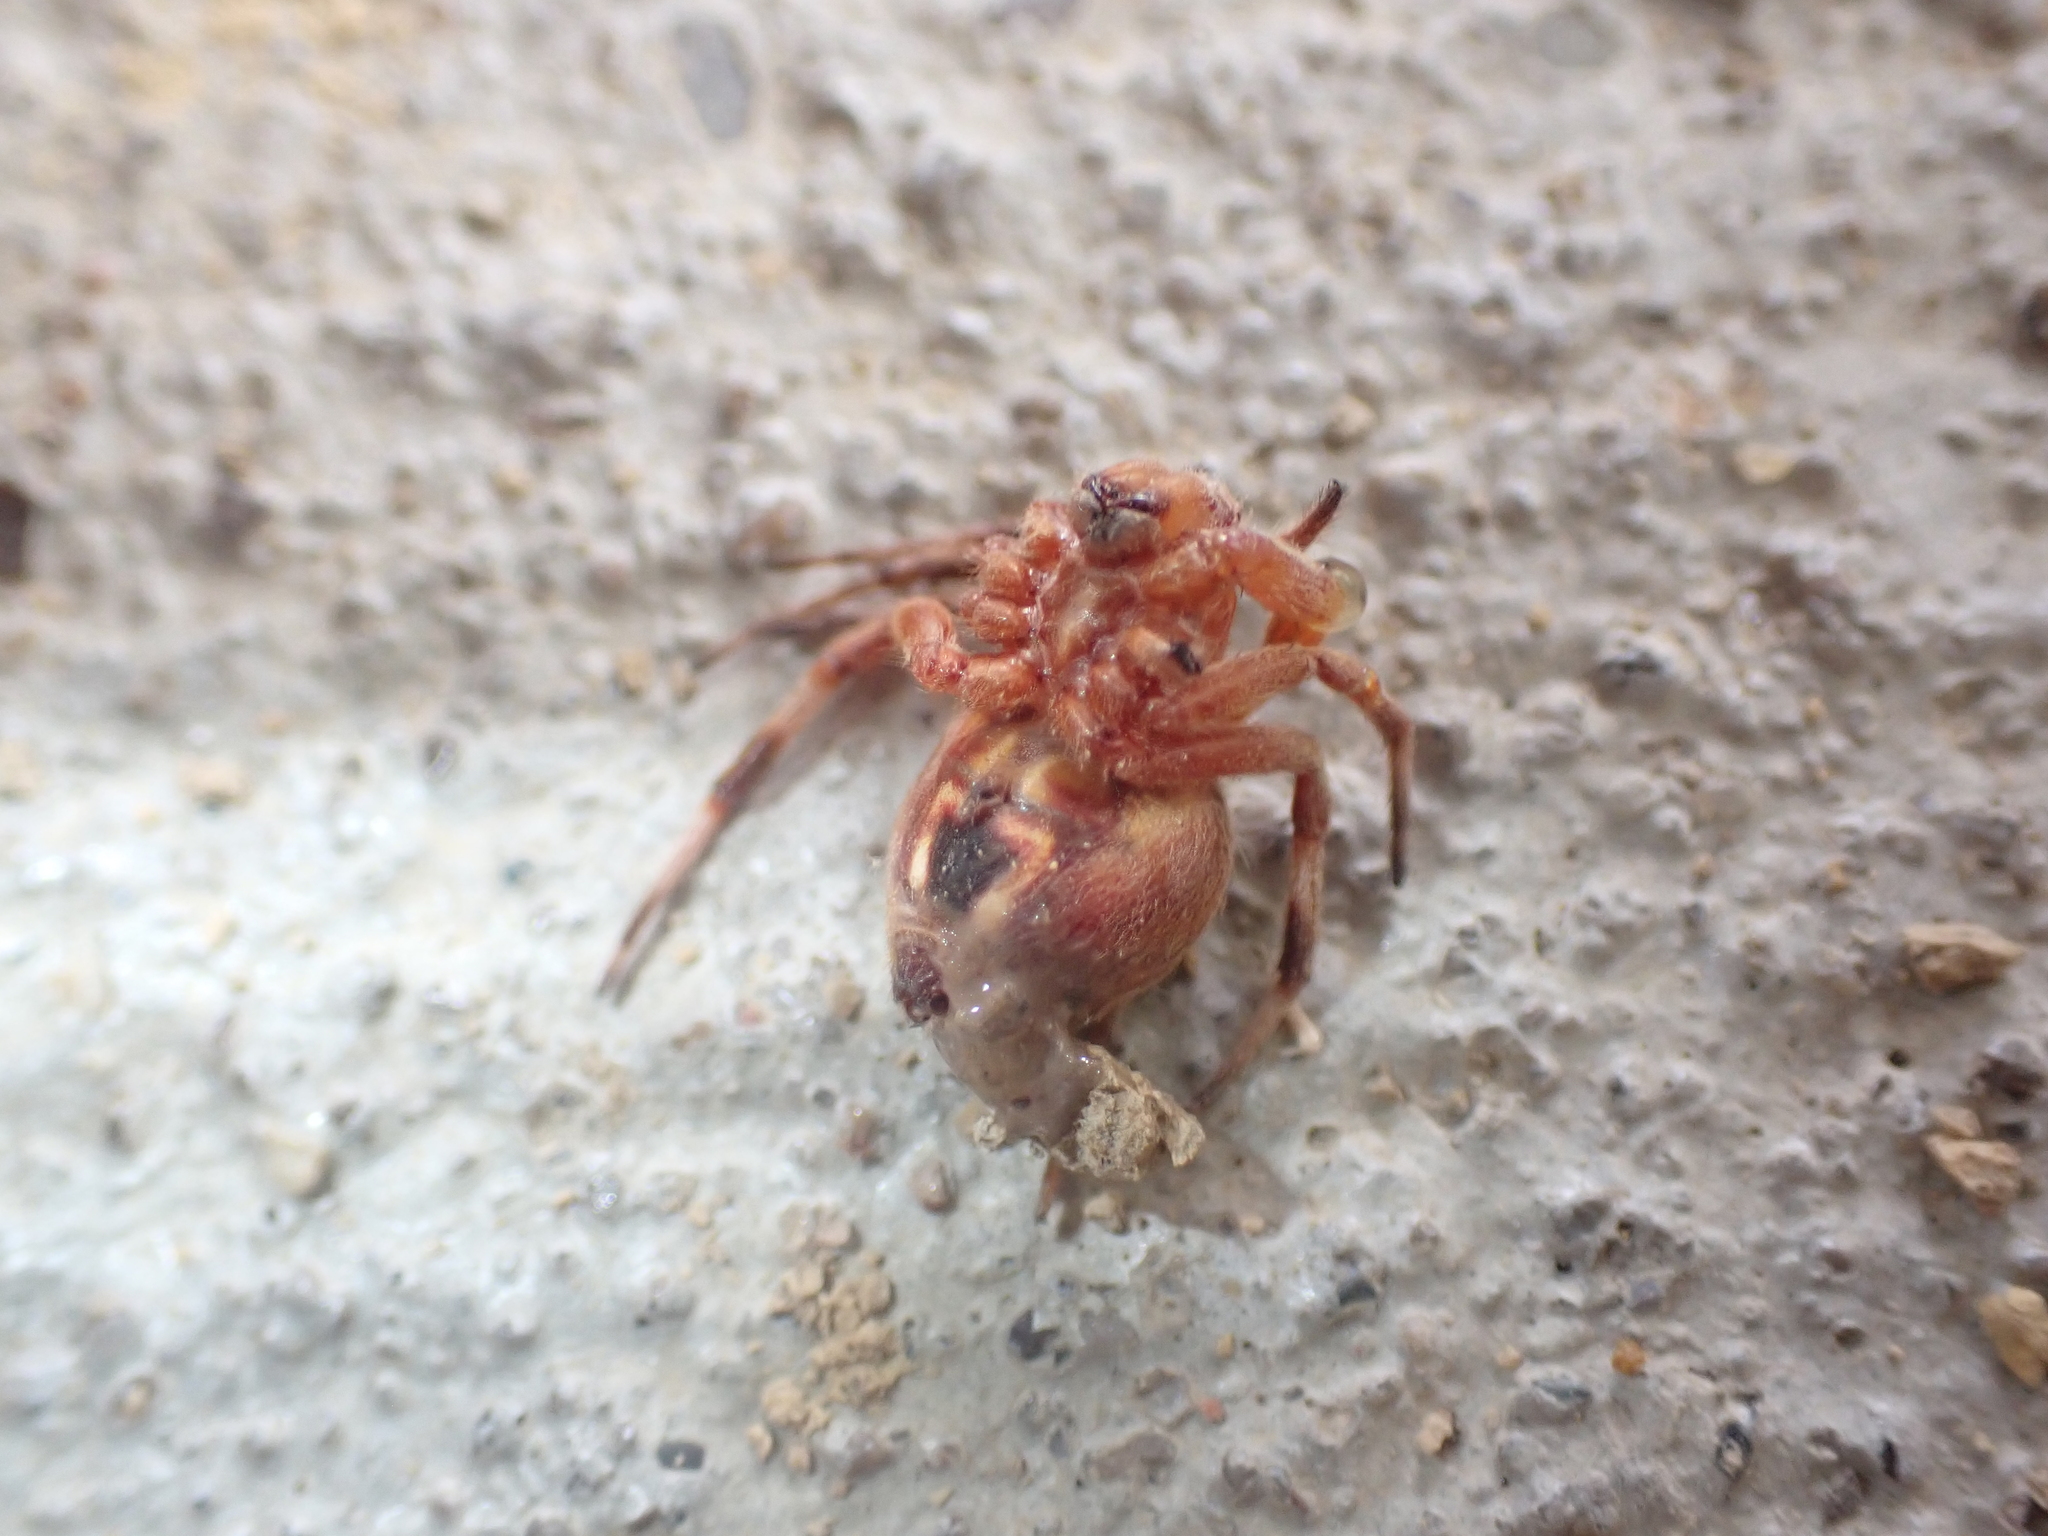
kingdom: Animalia
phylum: Arthropoda
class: Arachnida
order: Araneae
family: Araneidae
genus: Neoscona
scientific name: Neoscona crucifera
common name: Spotted orbweaver
